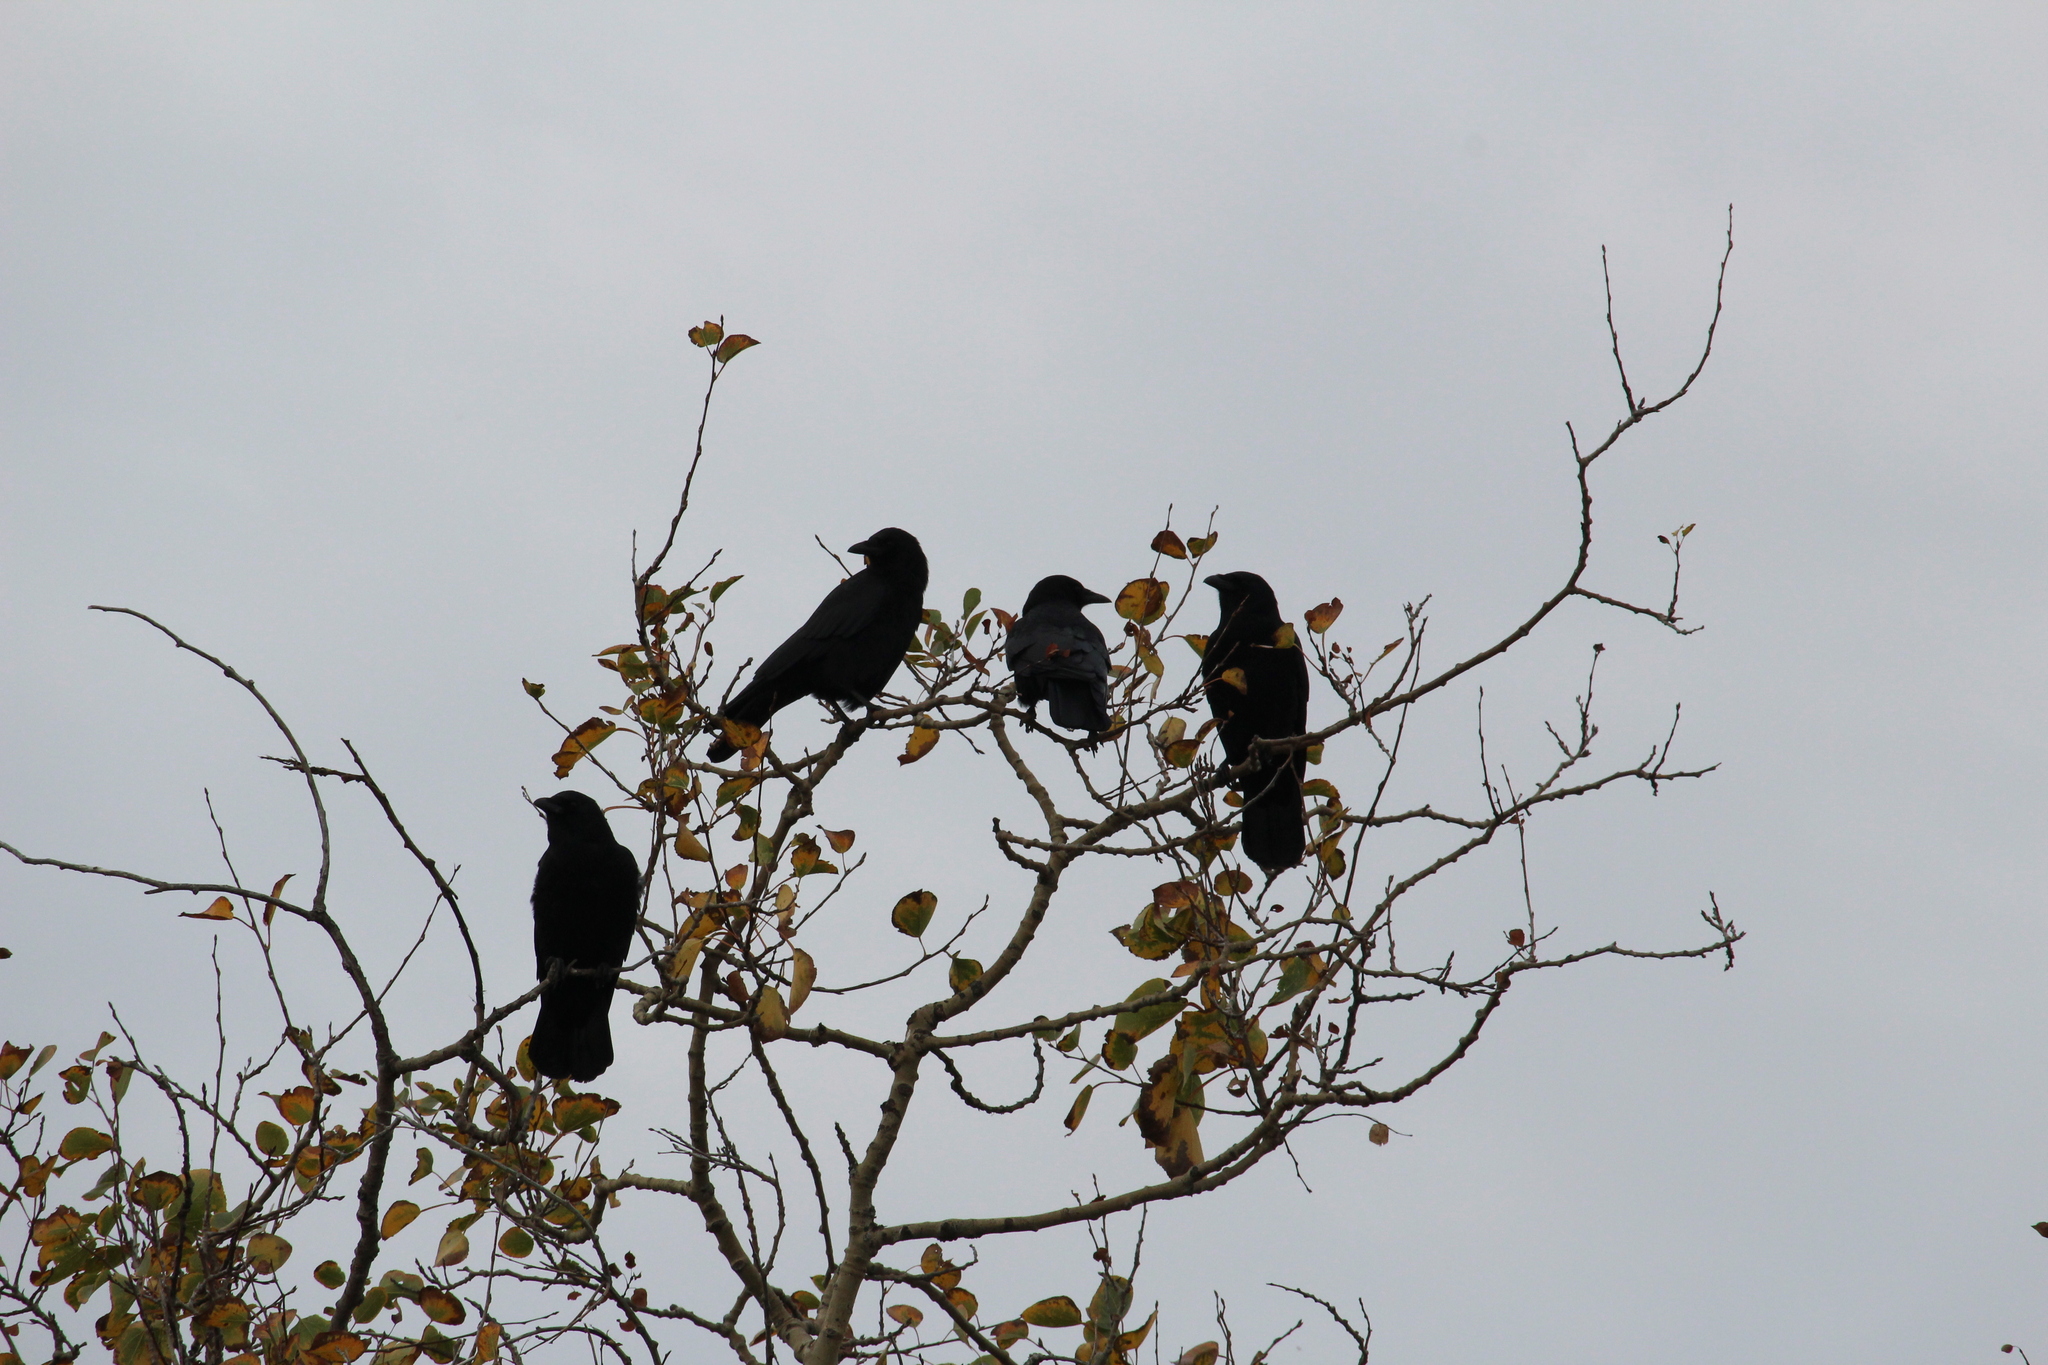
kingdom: Animalia
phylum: Chordata
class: Aves
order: Passeriformes
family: Corvidae
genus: Corvus
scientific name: Corvus brachyrhynchos
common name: American crow
